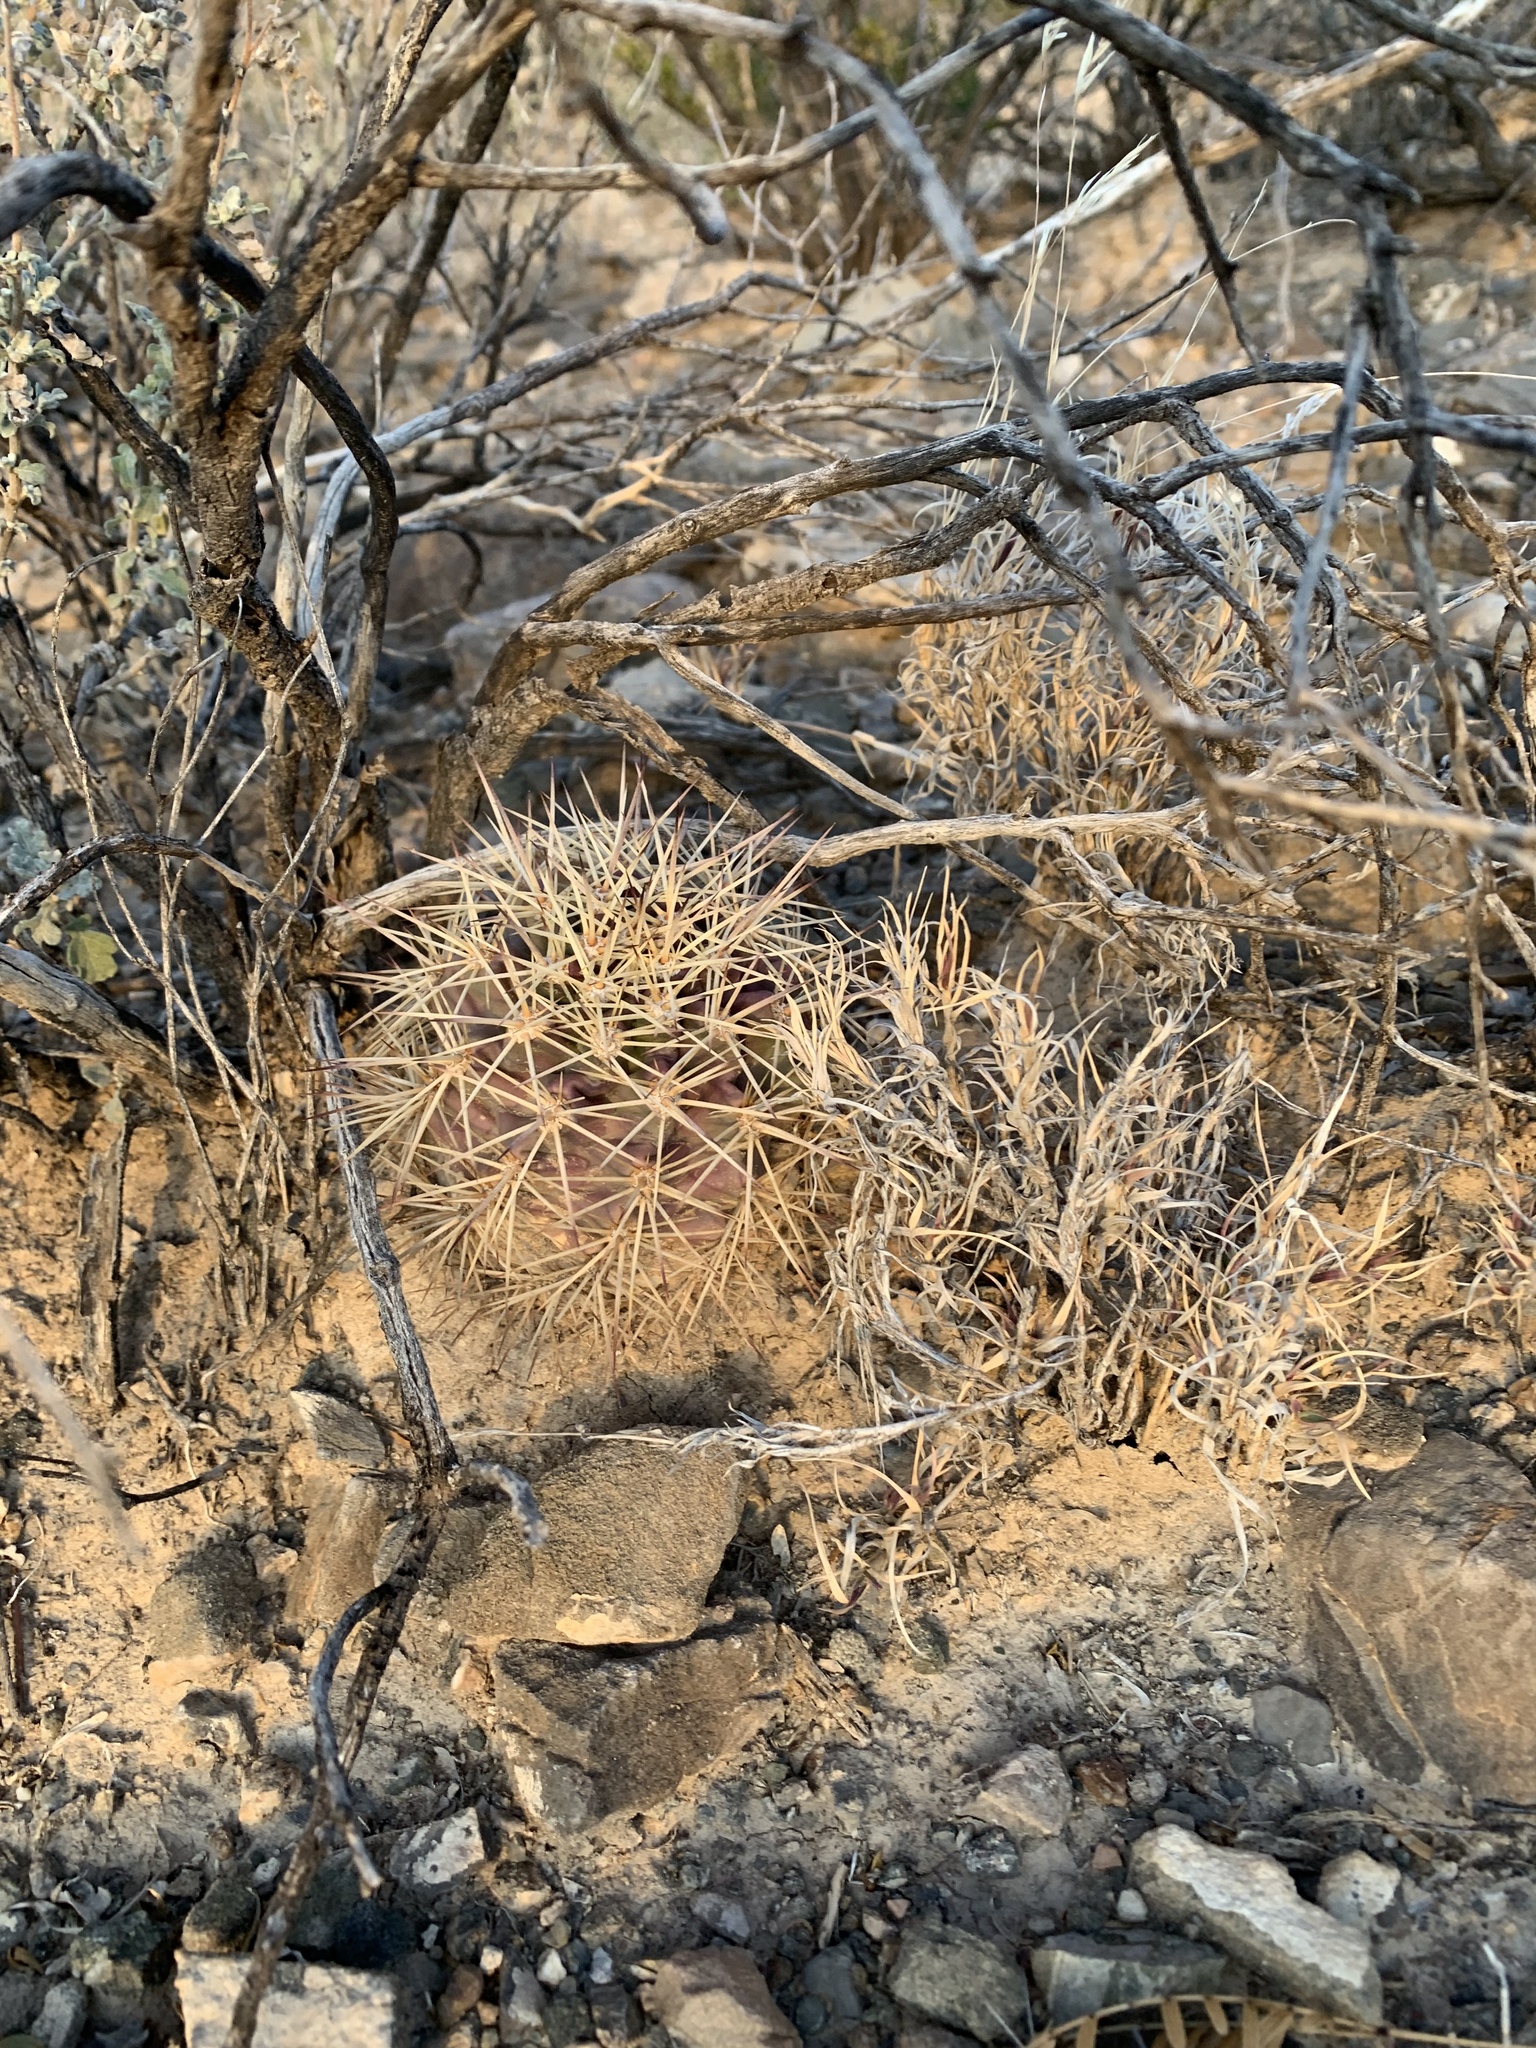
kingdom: Plantae
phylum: Tracheophyta
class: Magnoliopsida
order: Caryophyllales
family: Cactaceae
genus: Echinocereus
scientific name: Echinocereus coccineus
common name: Scarlet hedgehog cactus
